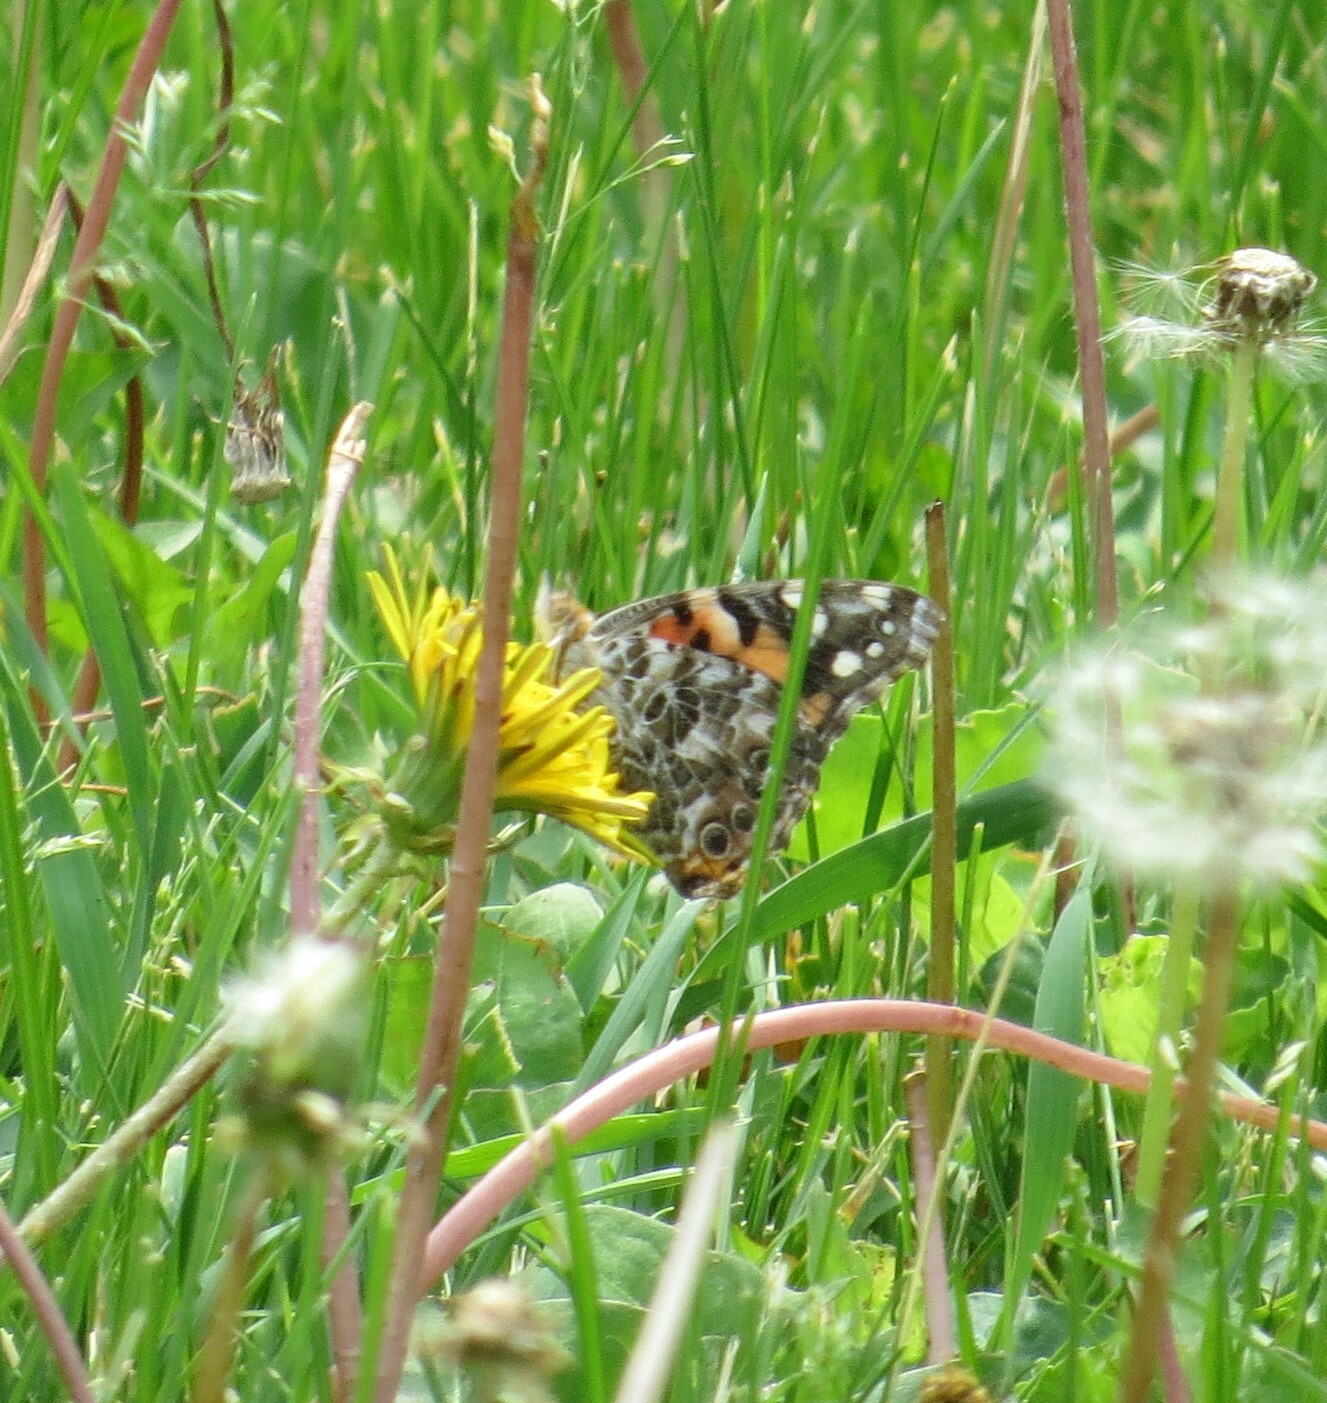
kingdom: Animalia
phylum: Arthropoda
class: Insecta
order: Lepidoptera
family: Nymphalidae
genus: Vanessa
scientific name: Vanessa cardui
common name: Painted lady
